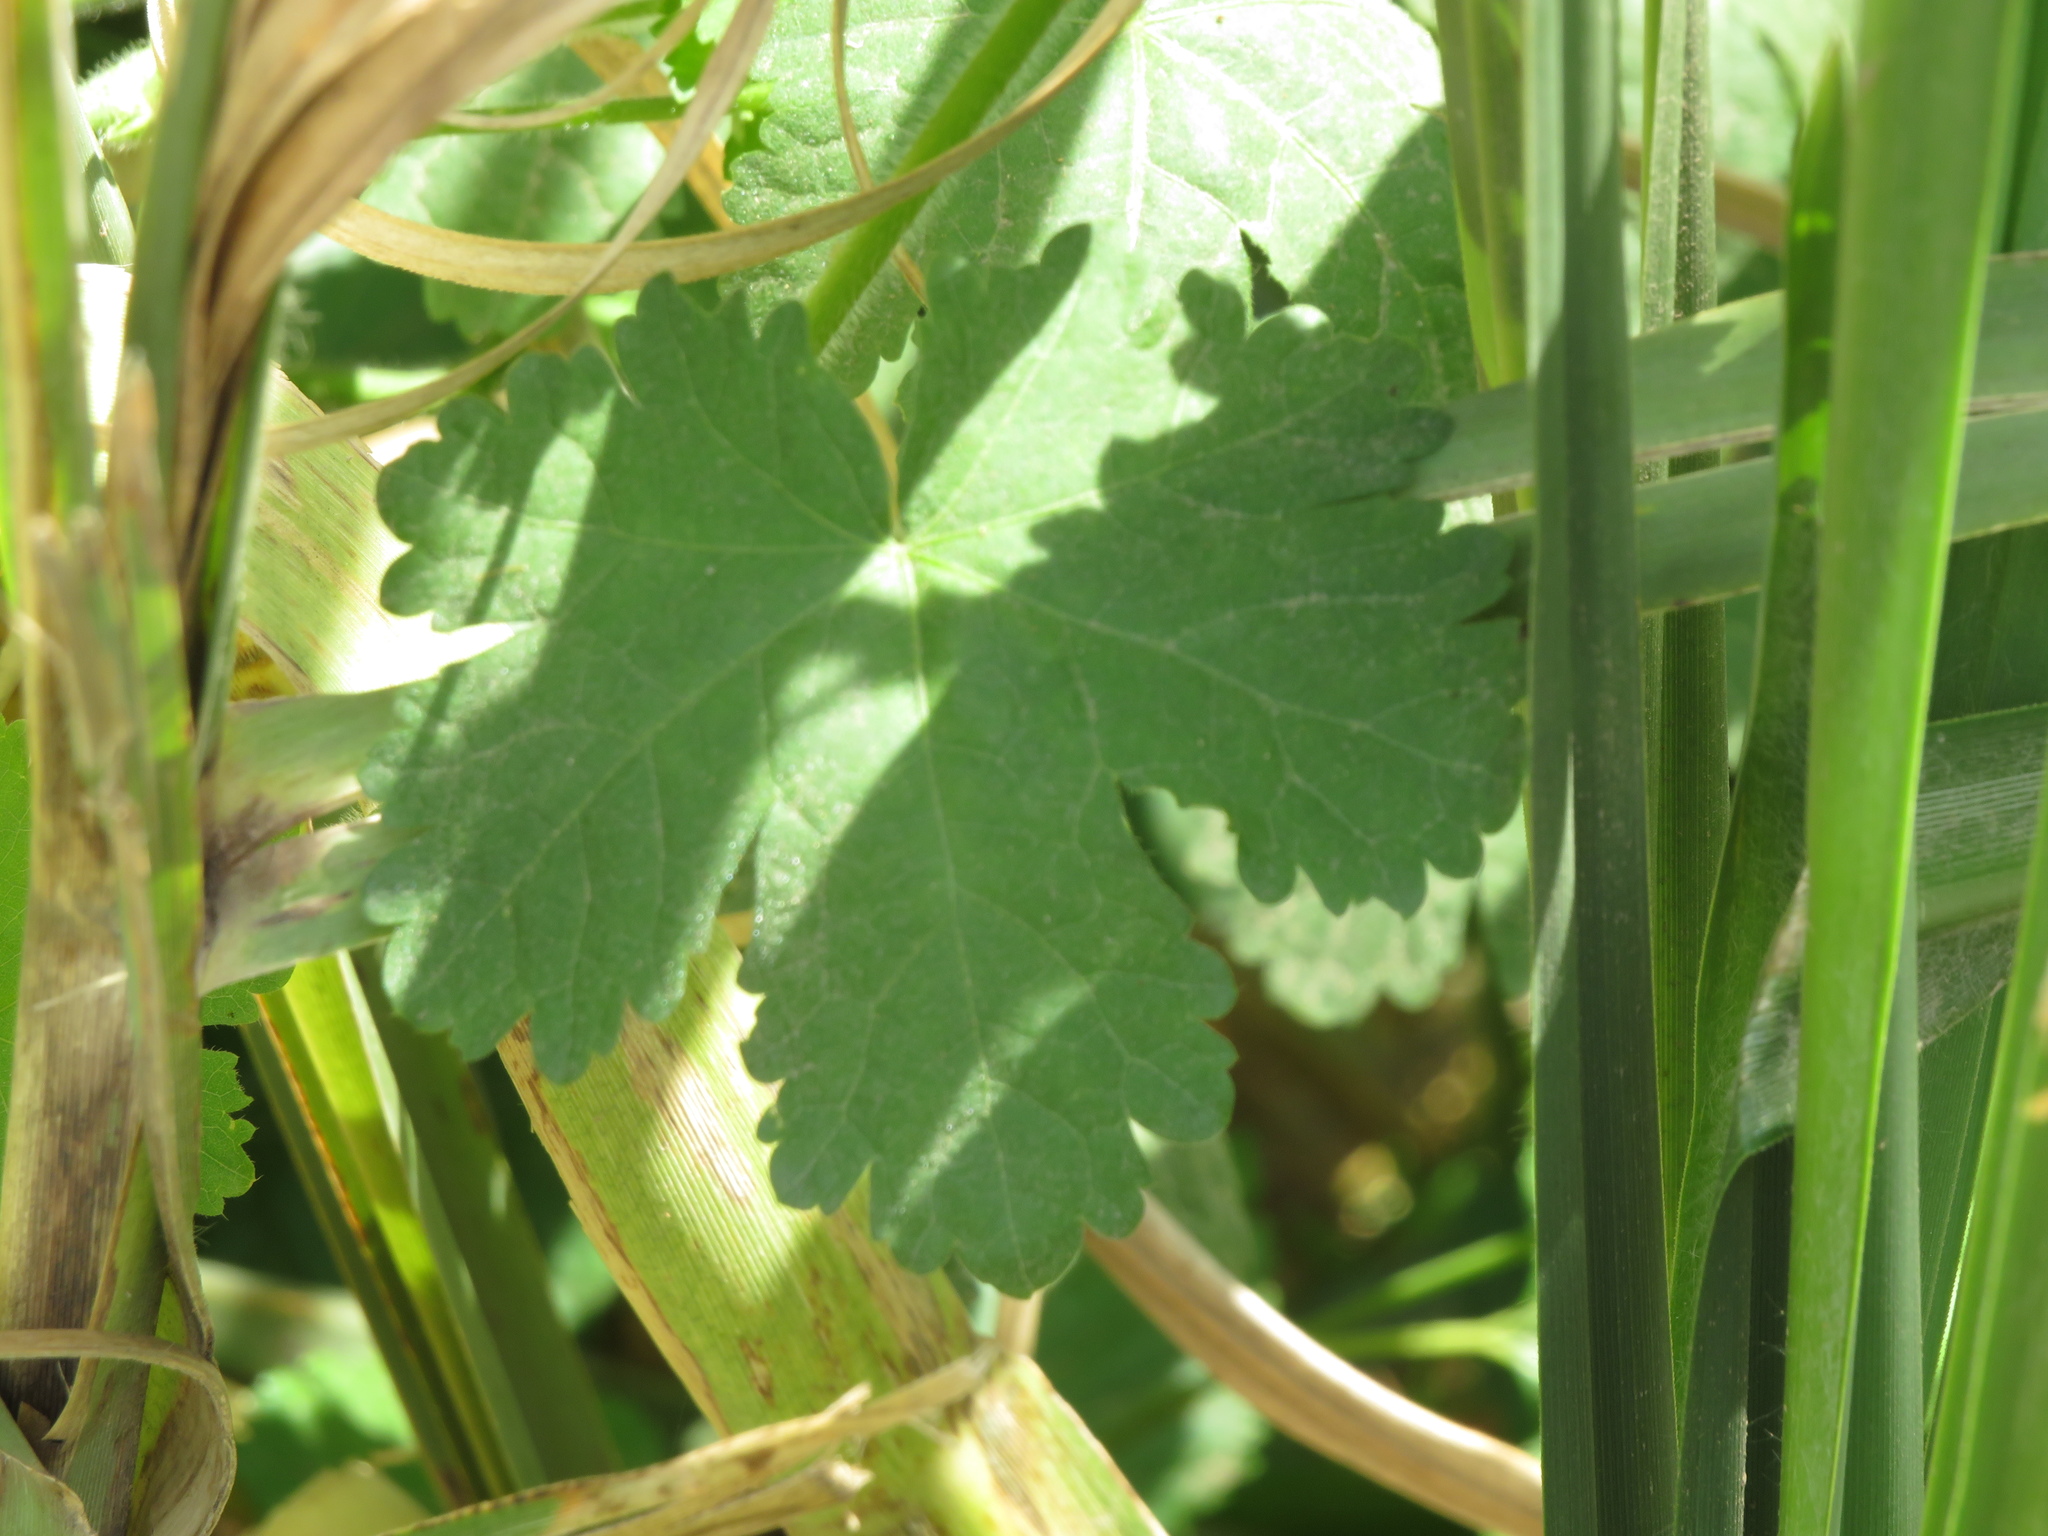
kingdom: Plantae
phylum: Tracheophyta
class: Magnoliopsida
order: Malvales
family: Malvaceae
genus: Modiolastrum
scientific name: Modiolastrum malvifolium
